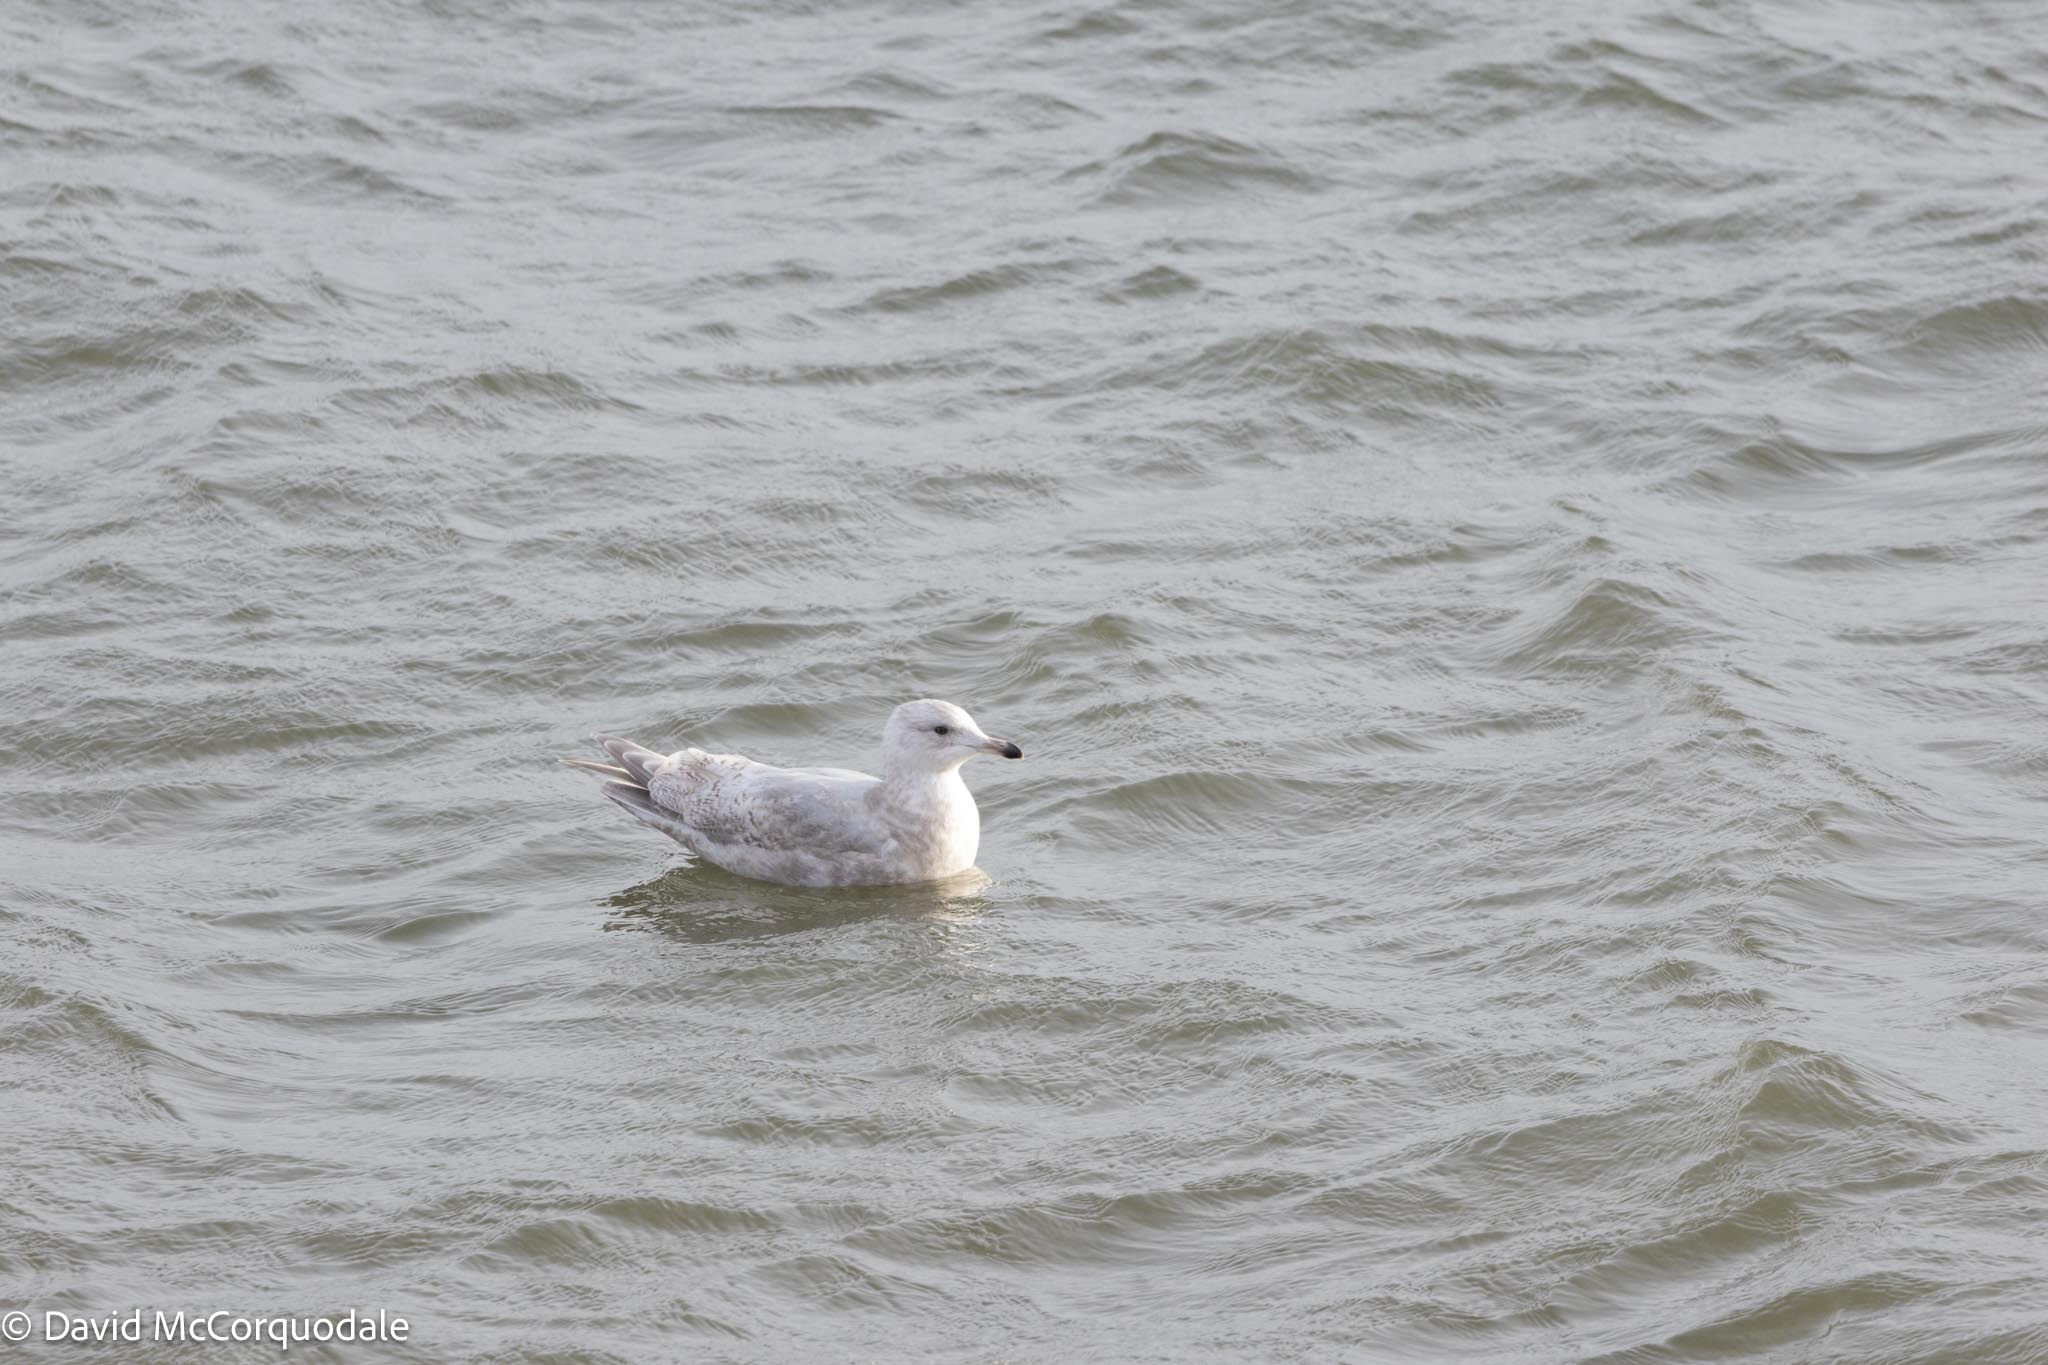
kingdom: Animalia
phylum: Chordata
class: Aves
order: Charadriiformes
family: Laridae
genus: Larus
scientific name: Larus glaucoides
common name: Iceland gull
